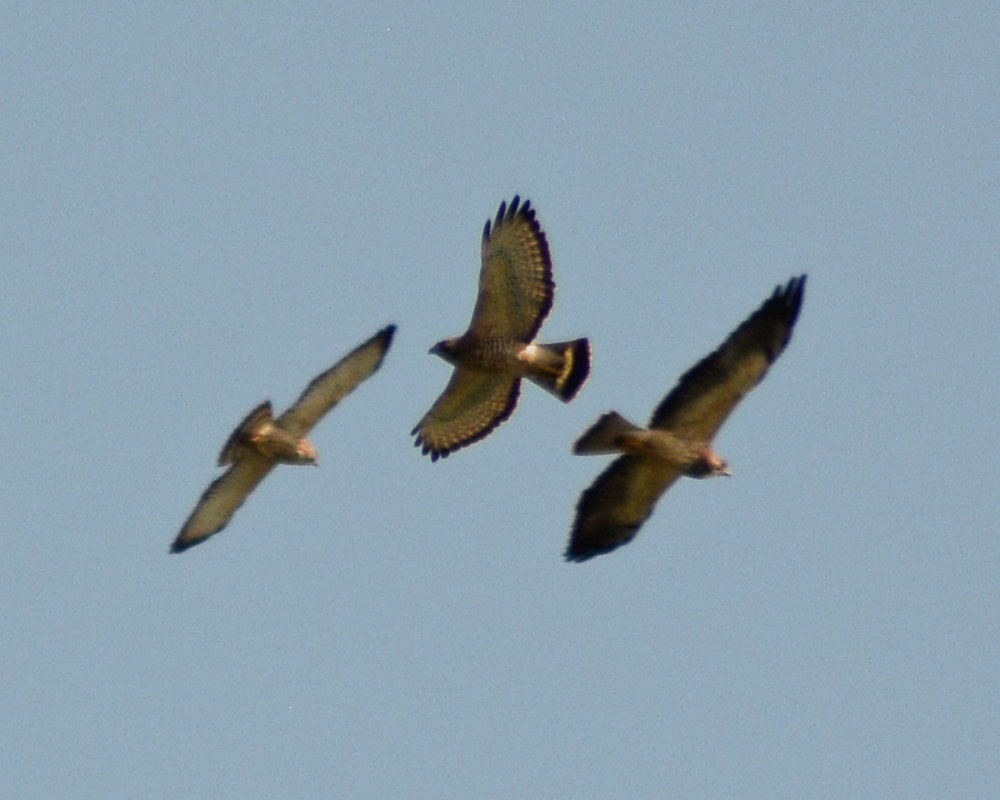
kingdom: Animalia
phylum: Chordata
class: Aves
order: Accipitriformes
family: Accipitridae
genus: Buteo
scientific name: Buteo platypterus
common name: Broad-winged hawk
